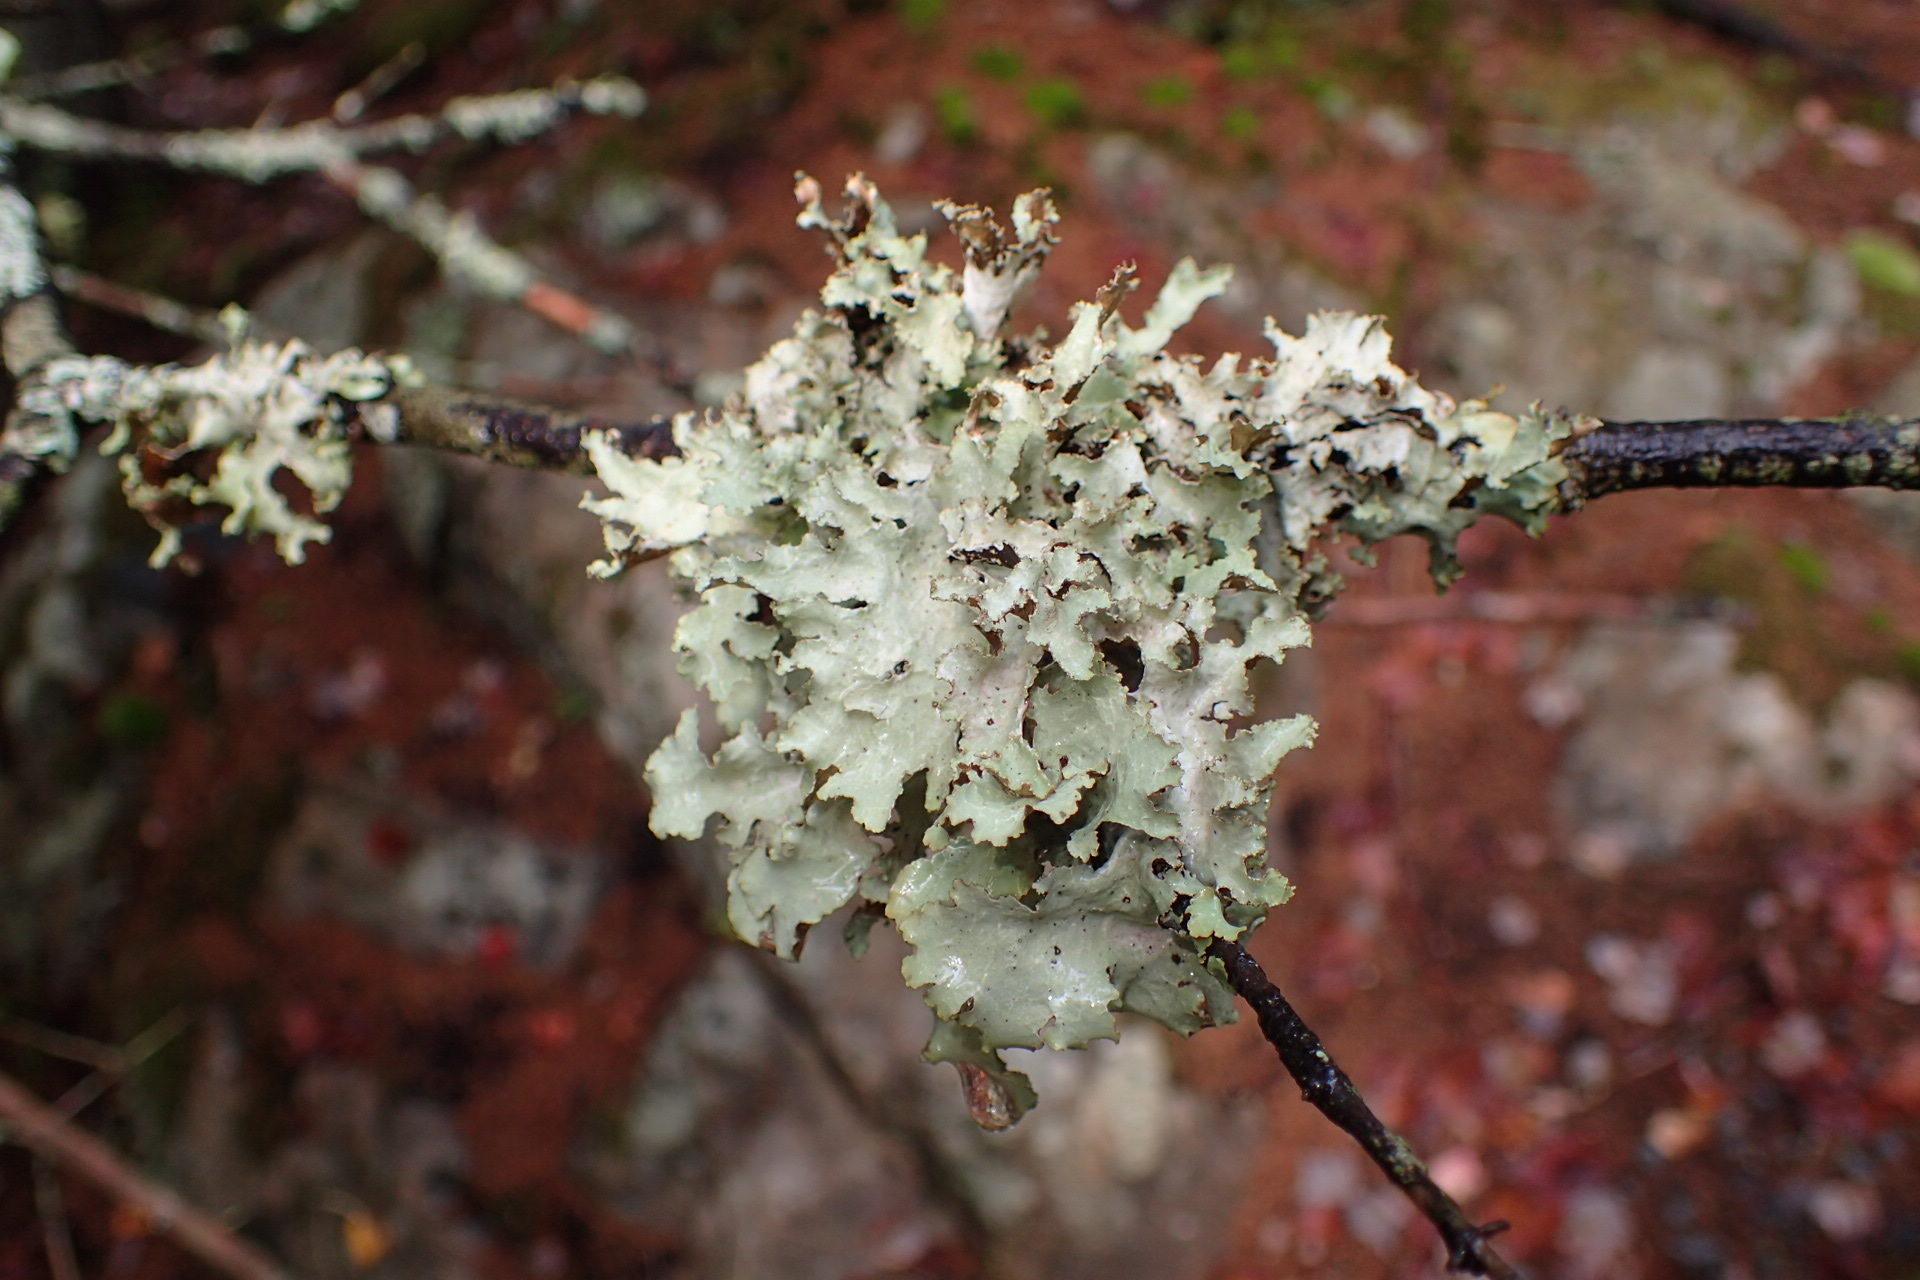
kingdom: Fungi
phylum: Ascomycota
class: Lecanoromycetes
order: Lecanorales
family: Parmeliaceae
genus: Platismatia
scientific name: Platismatia glauca
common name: Varied rag lichen
